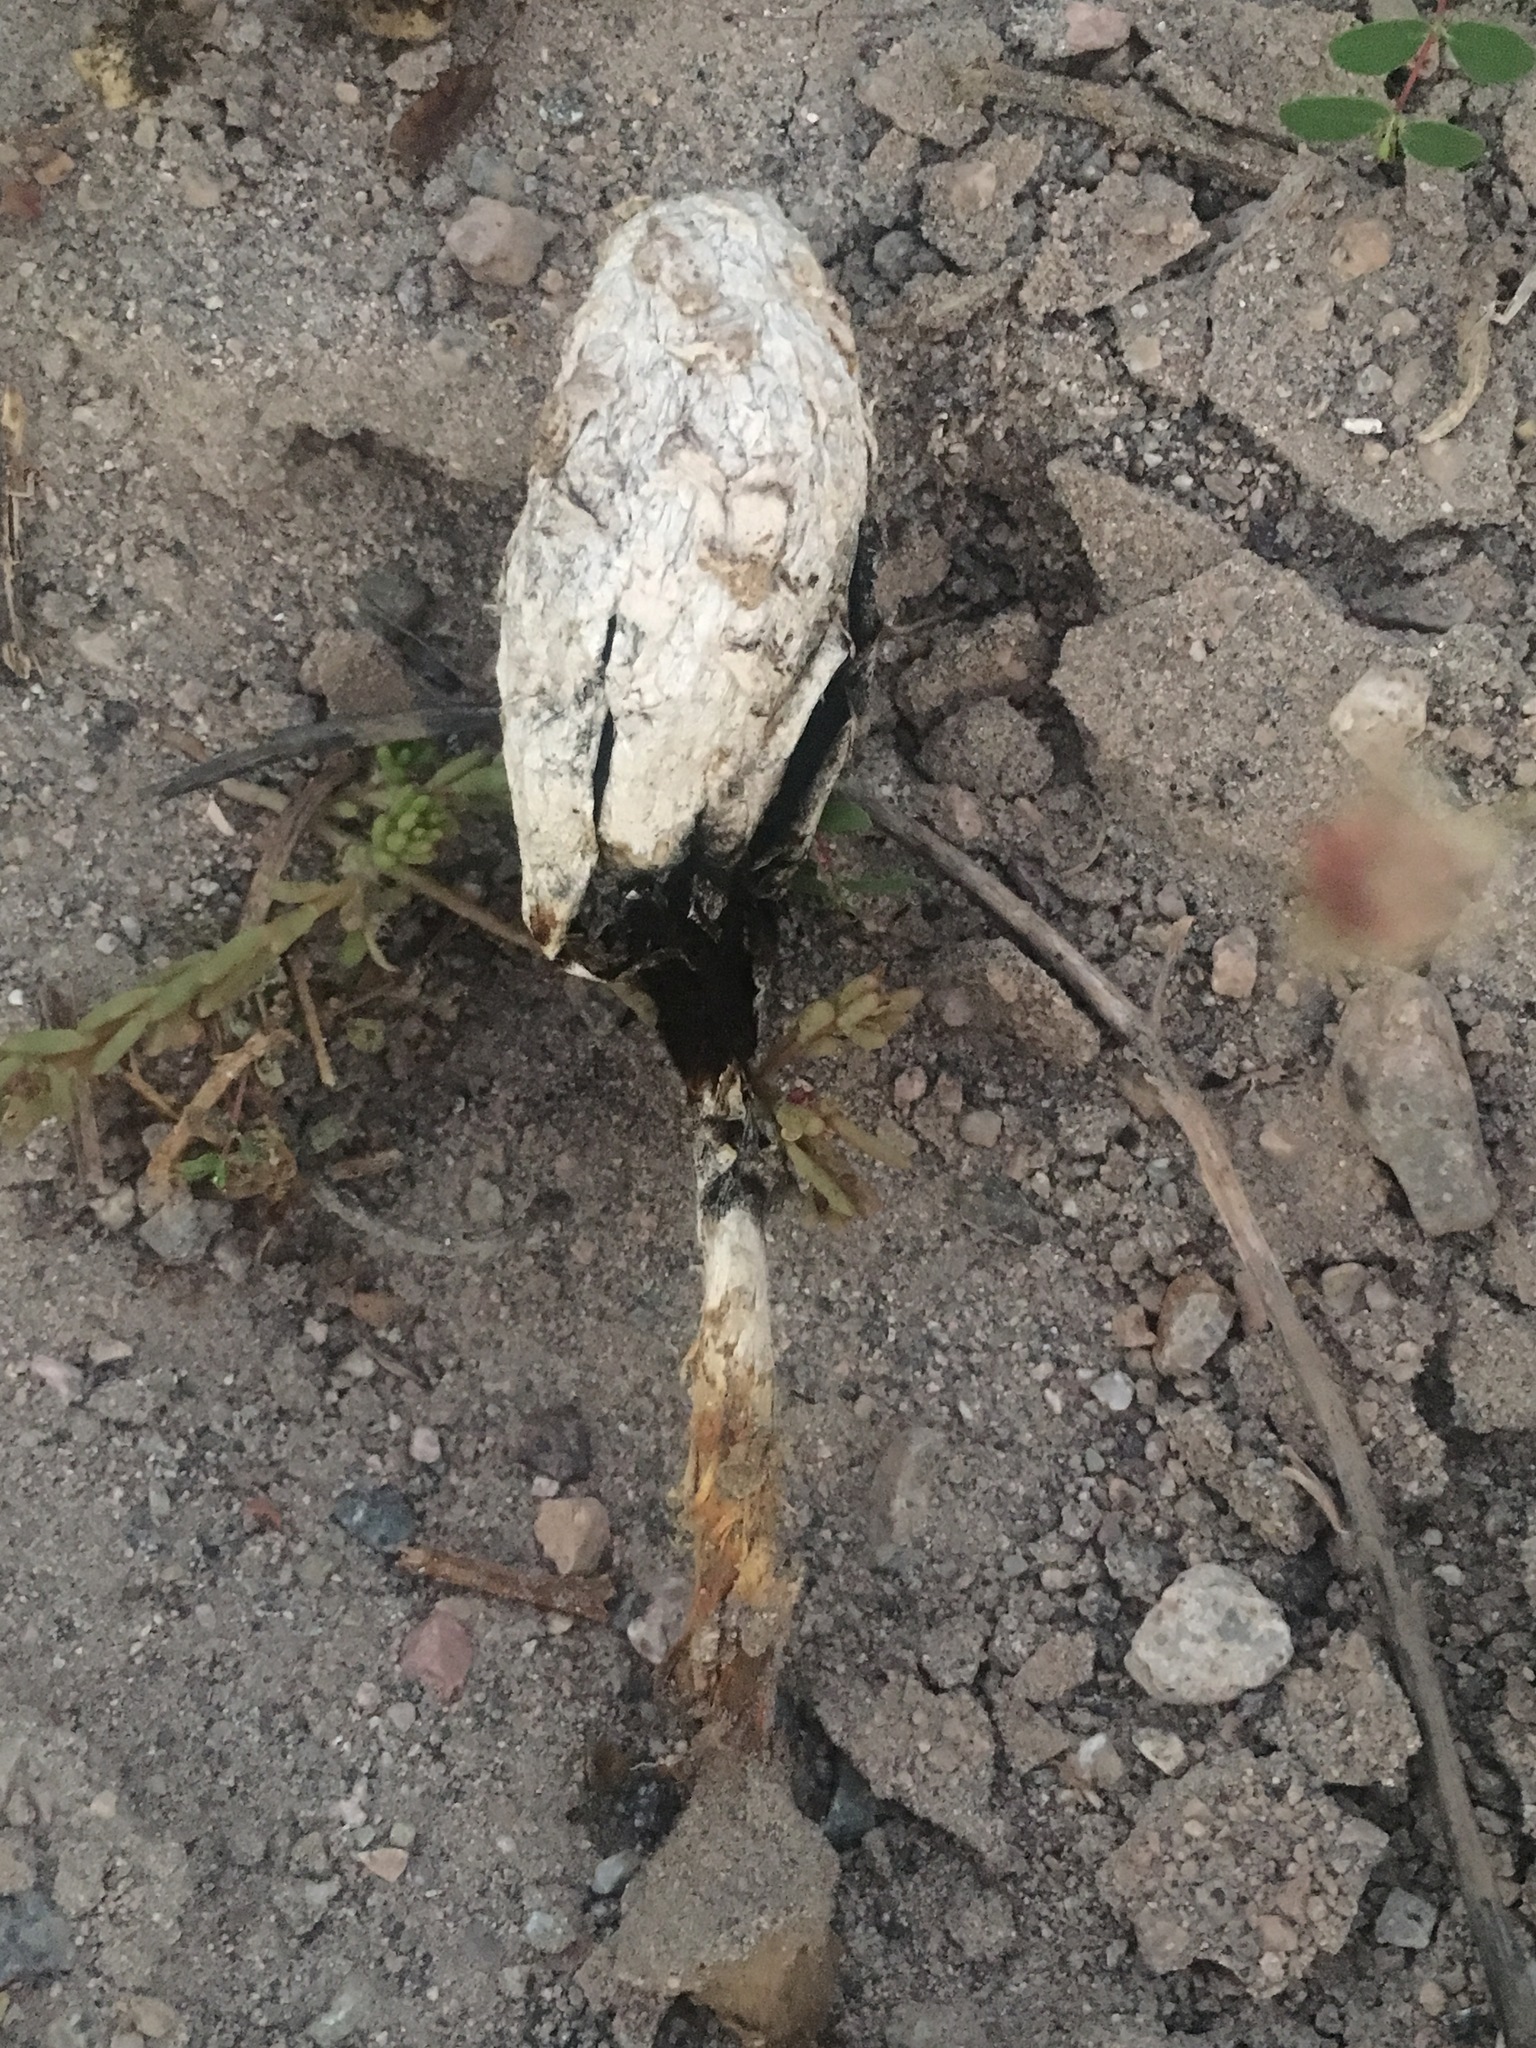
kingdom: Fungi
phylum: Basidiomycota
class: Agaricomycetes
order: Agaricales
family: Agaricaceae
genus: Podaxis
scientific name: Podaxis pistillaris
